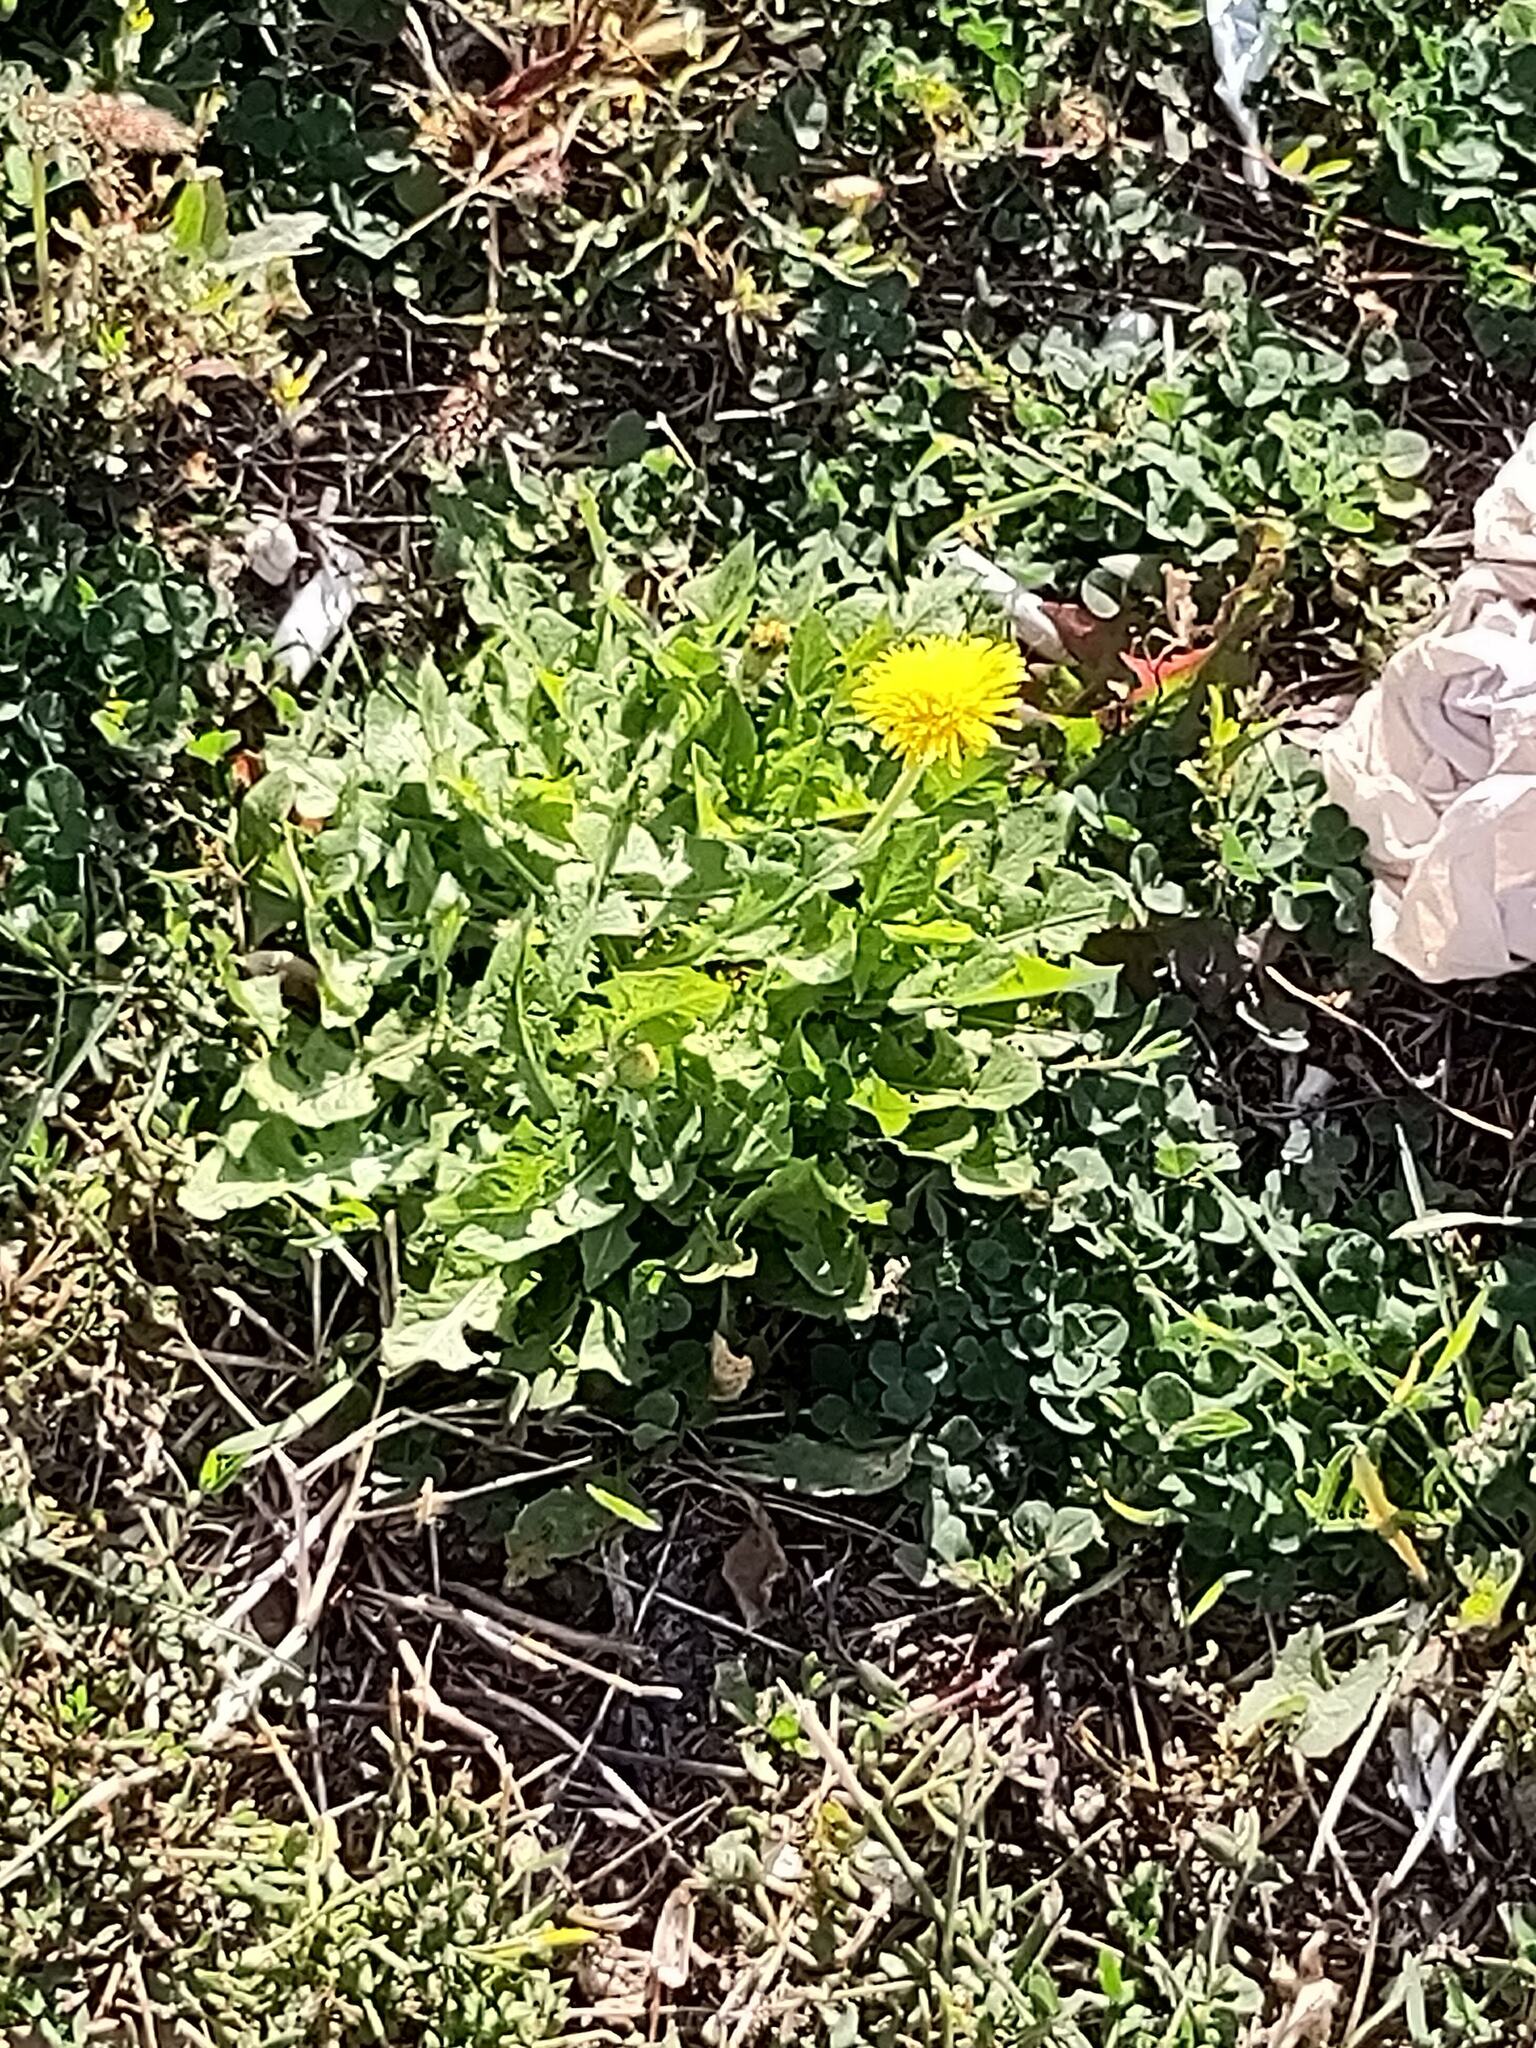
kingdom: Plantae
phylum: Tracheophyta
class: Magnoliopsida
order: Asterales
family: Asteraceae
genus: Taraxacum
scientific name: Taraxacum officinale
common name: Common dandelion
